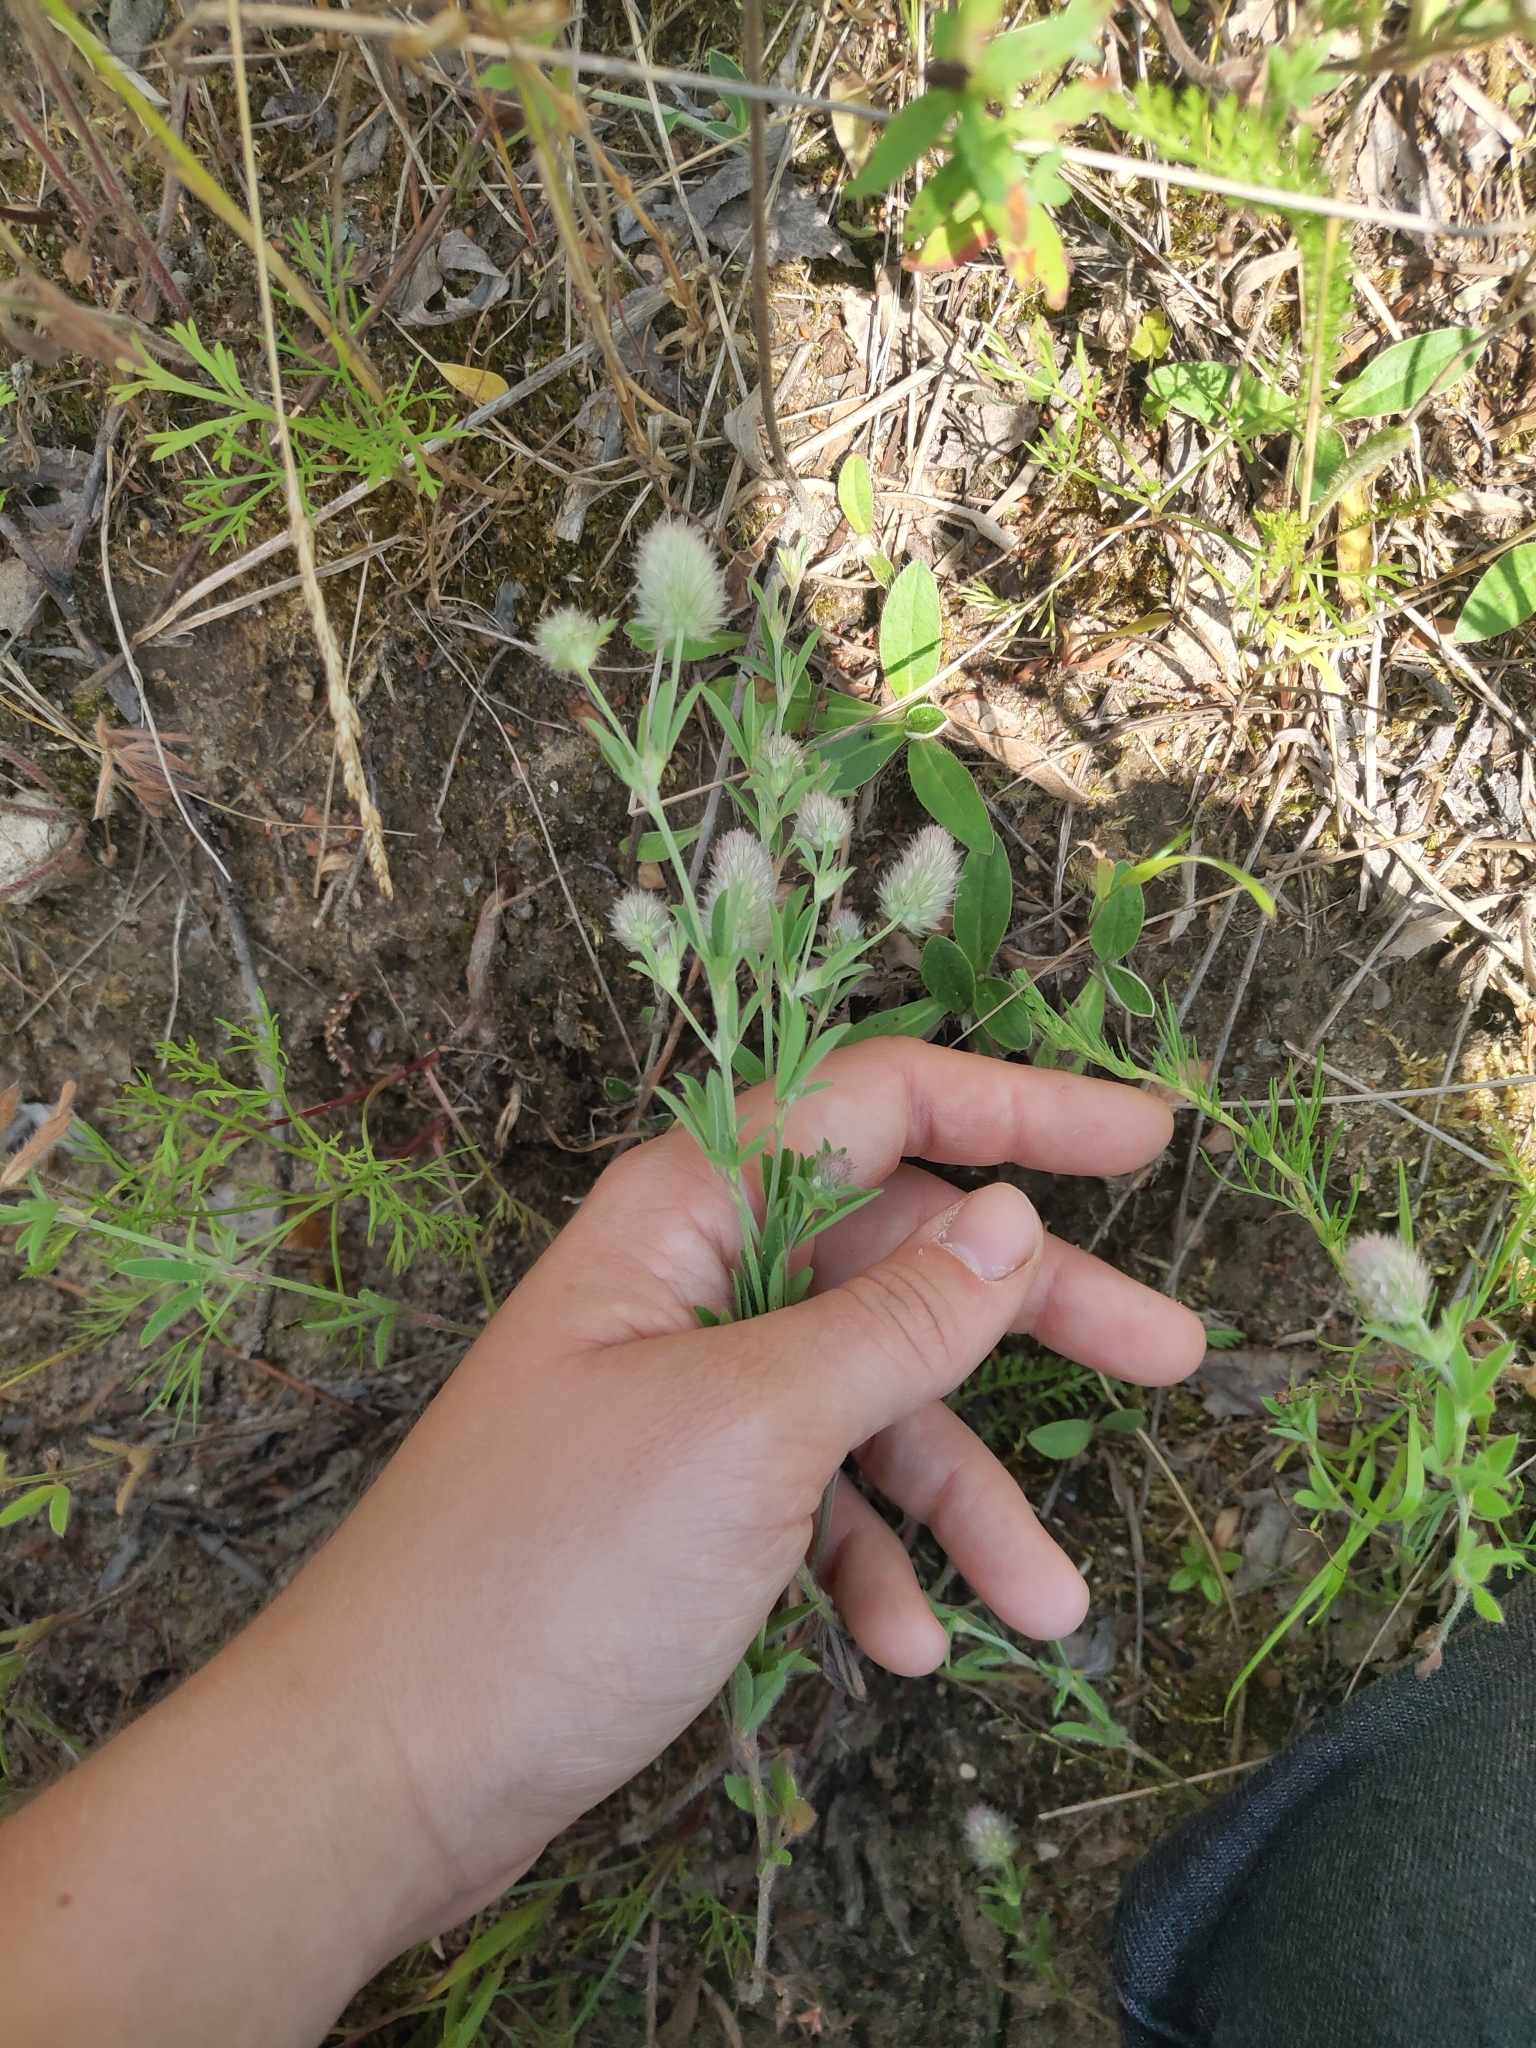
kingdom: Plantae
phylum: Tracheophyta
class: Magnoliopsida
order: Fabales
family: Fabaceae
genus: Trifolium
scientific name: Trifolium arvense
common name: Hare's-foot clover
